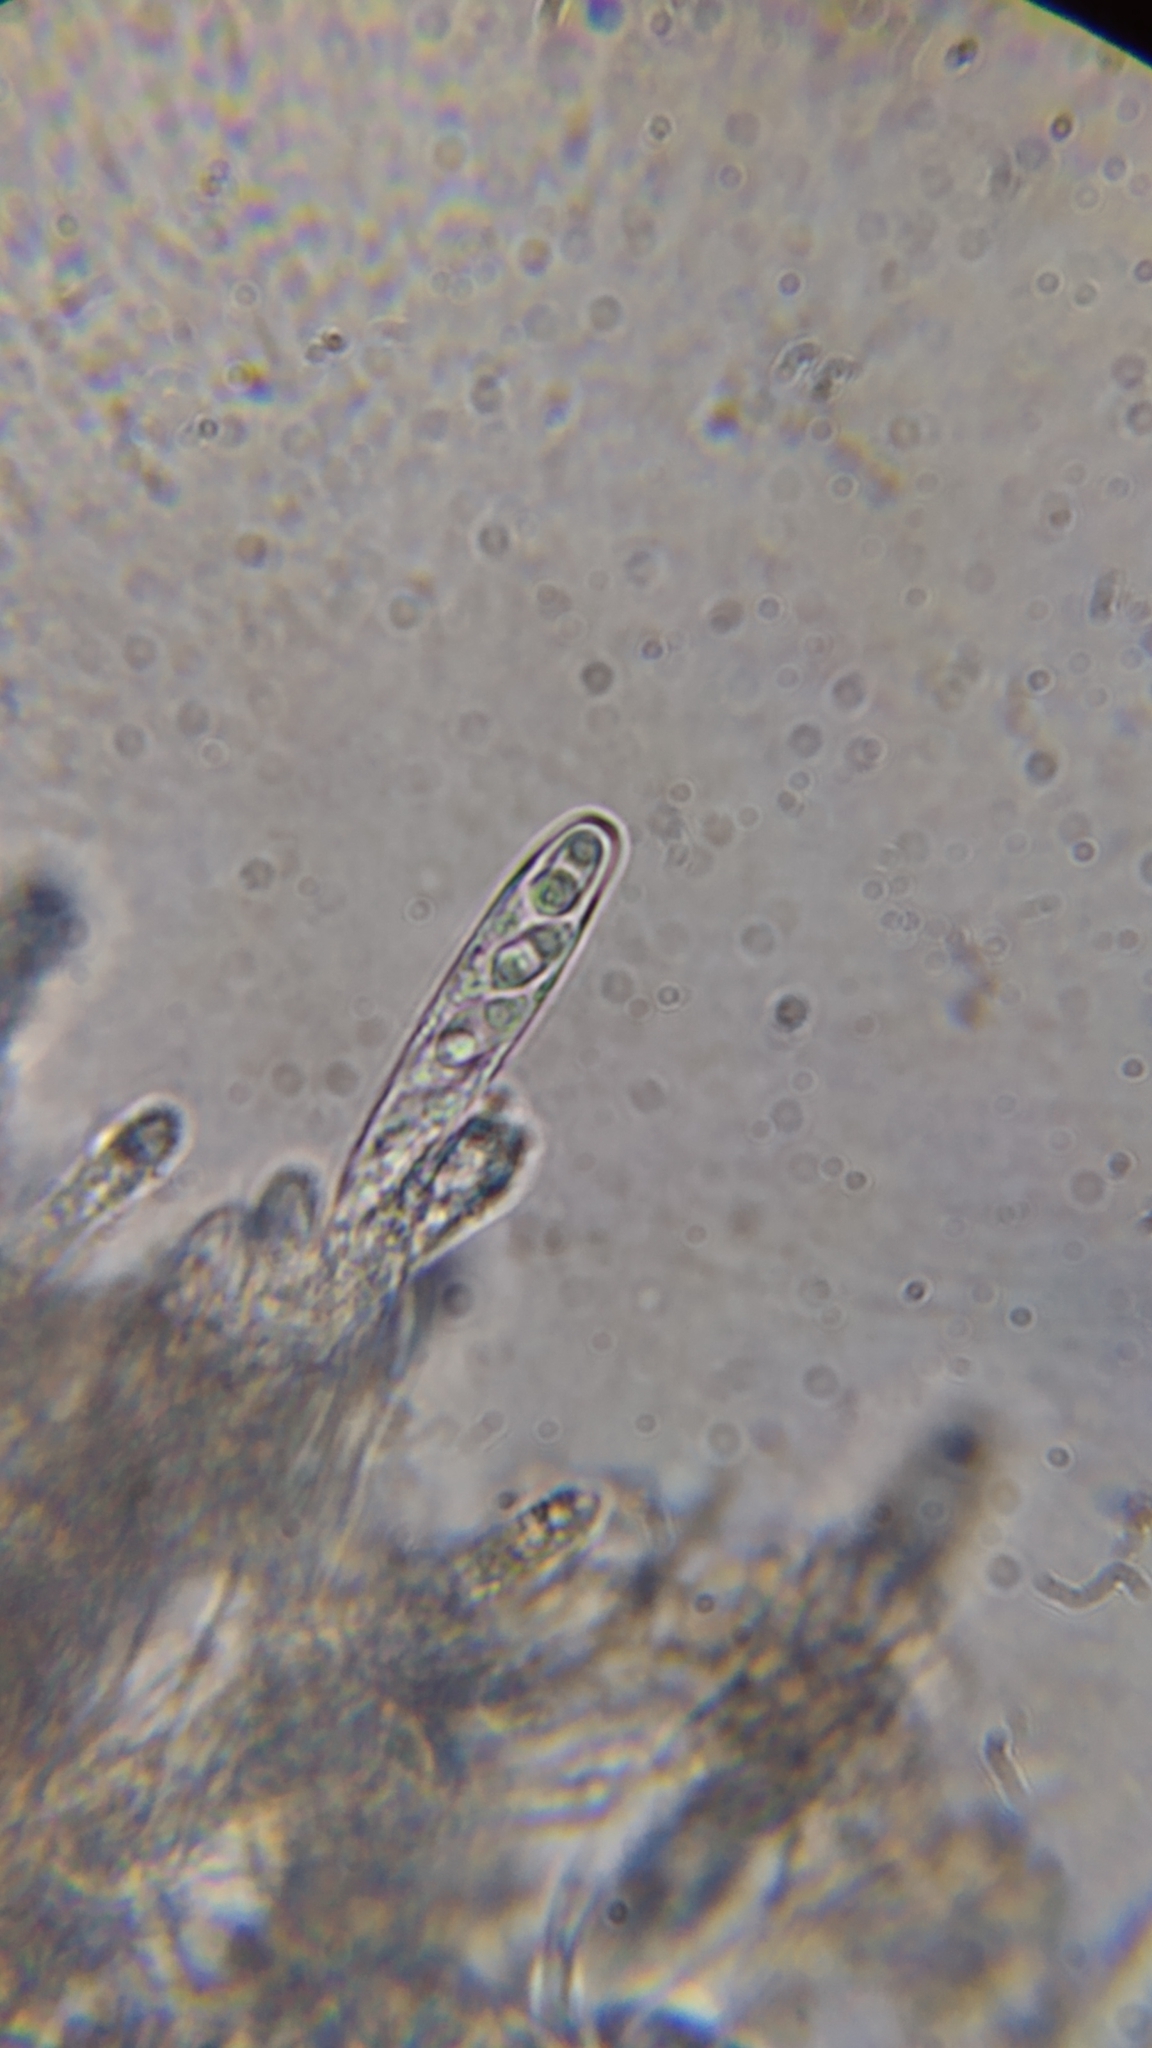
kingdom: Fungi
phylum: Ascomycota
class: Leotiomycetes
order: Helotiales
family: Cordieritidaceae
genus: Diplocarpa
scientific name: Diplocarpa irregularis
